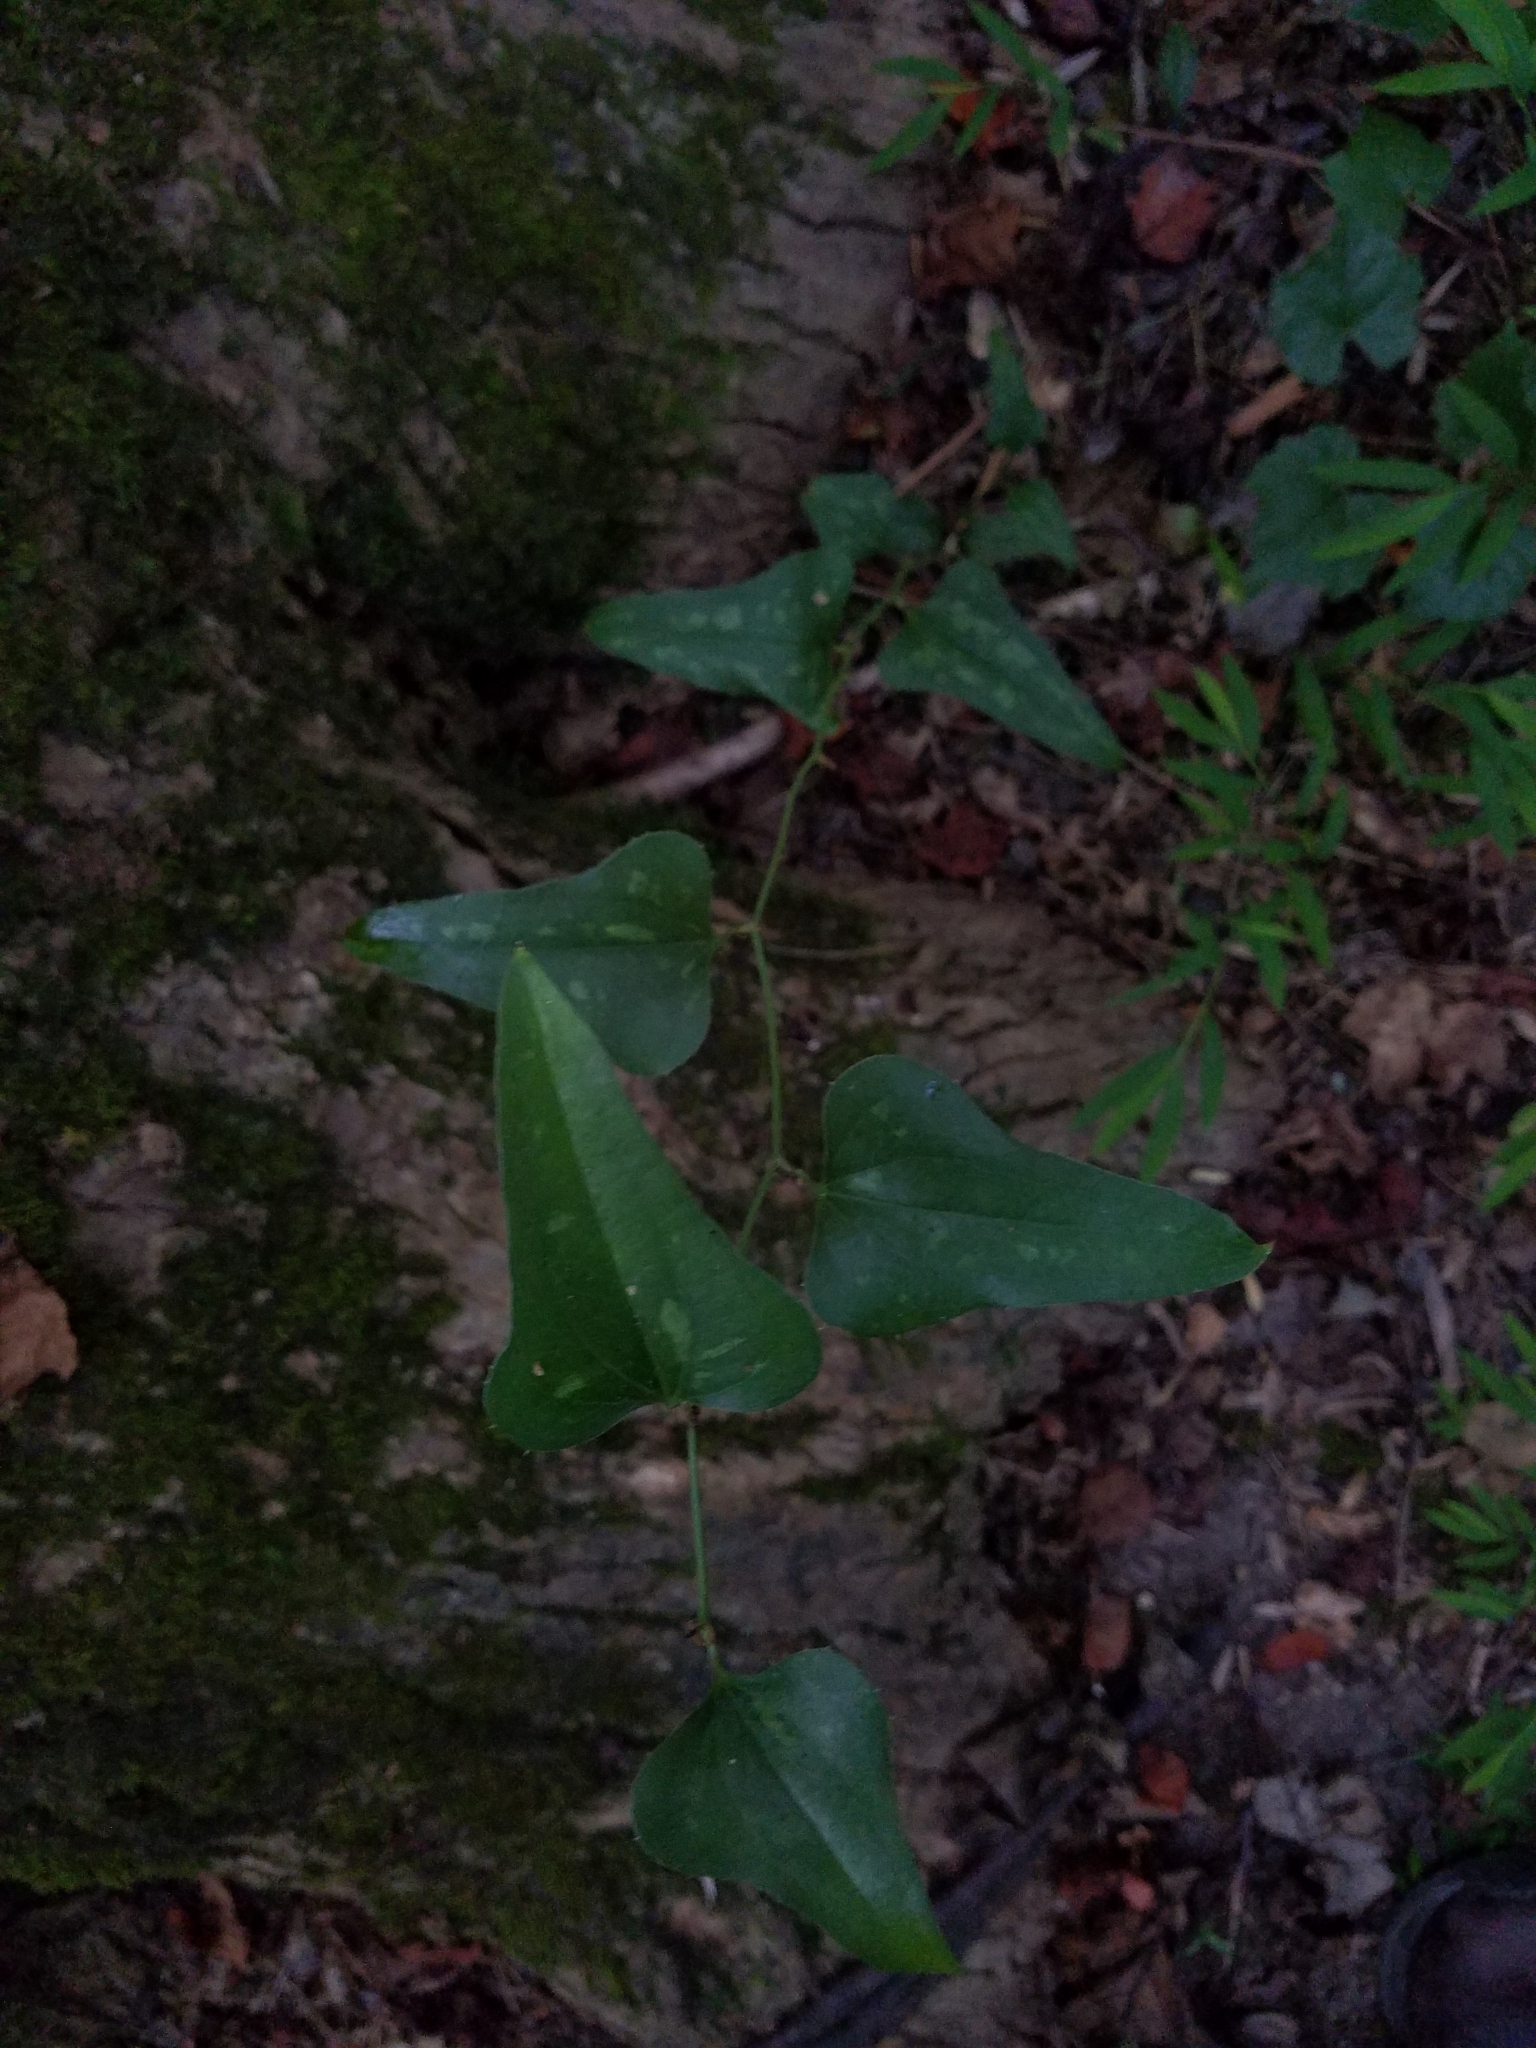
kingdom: Plantae
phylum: Tracheophyta
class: Liliopsida
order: Liliales
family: Smilacaceae
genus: Smilax
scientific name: Smilax bona-nox
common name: Catbrier
